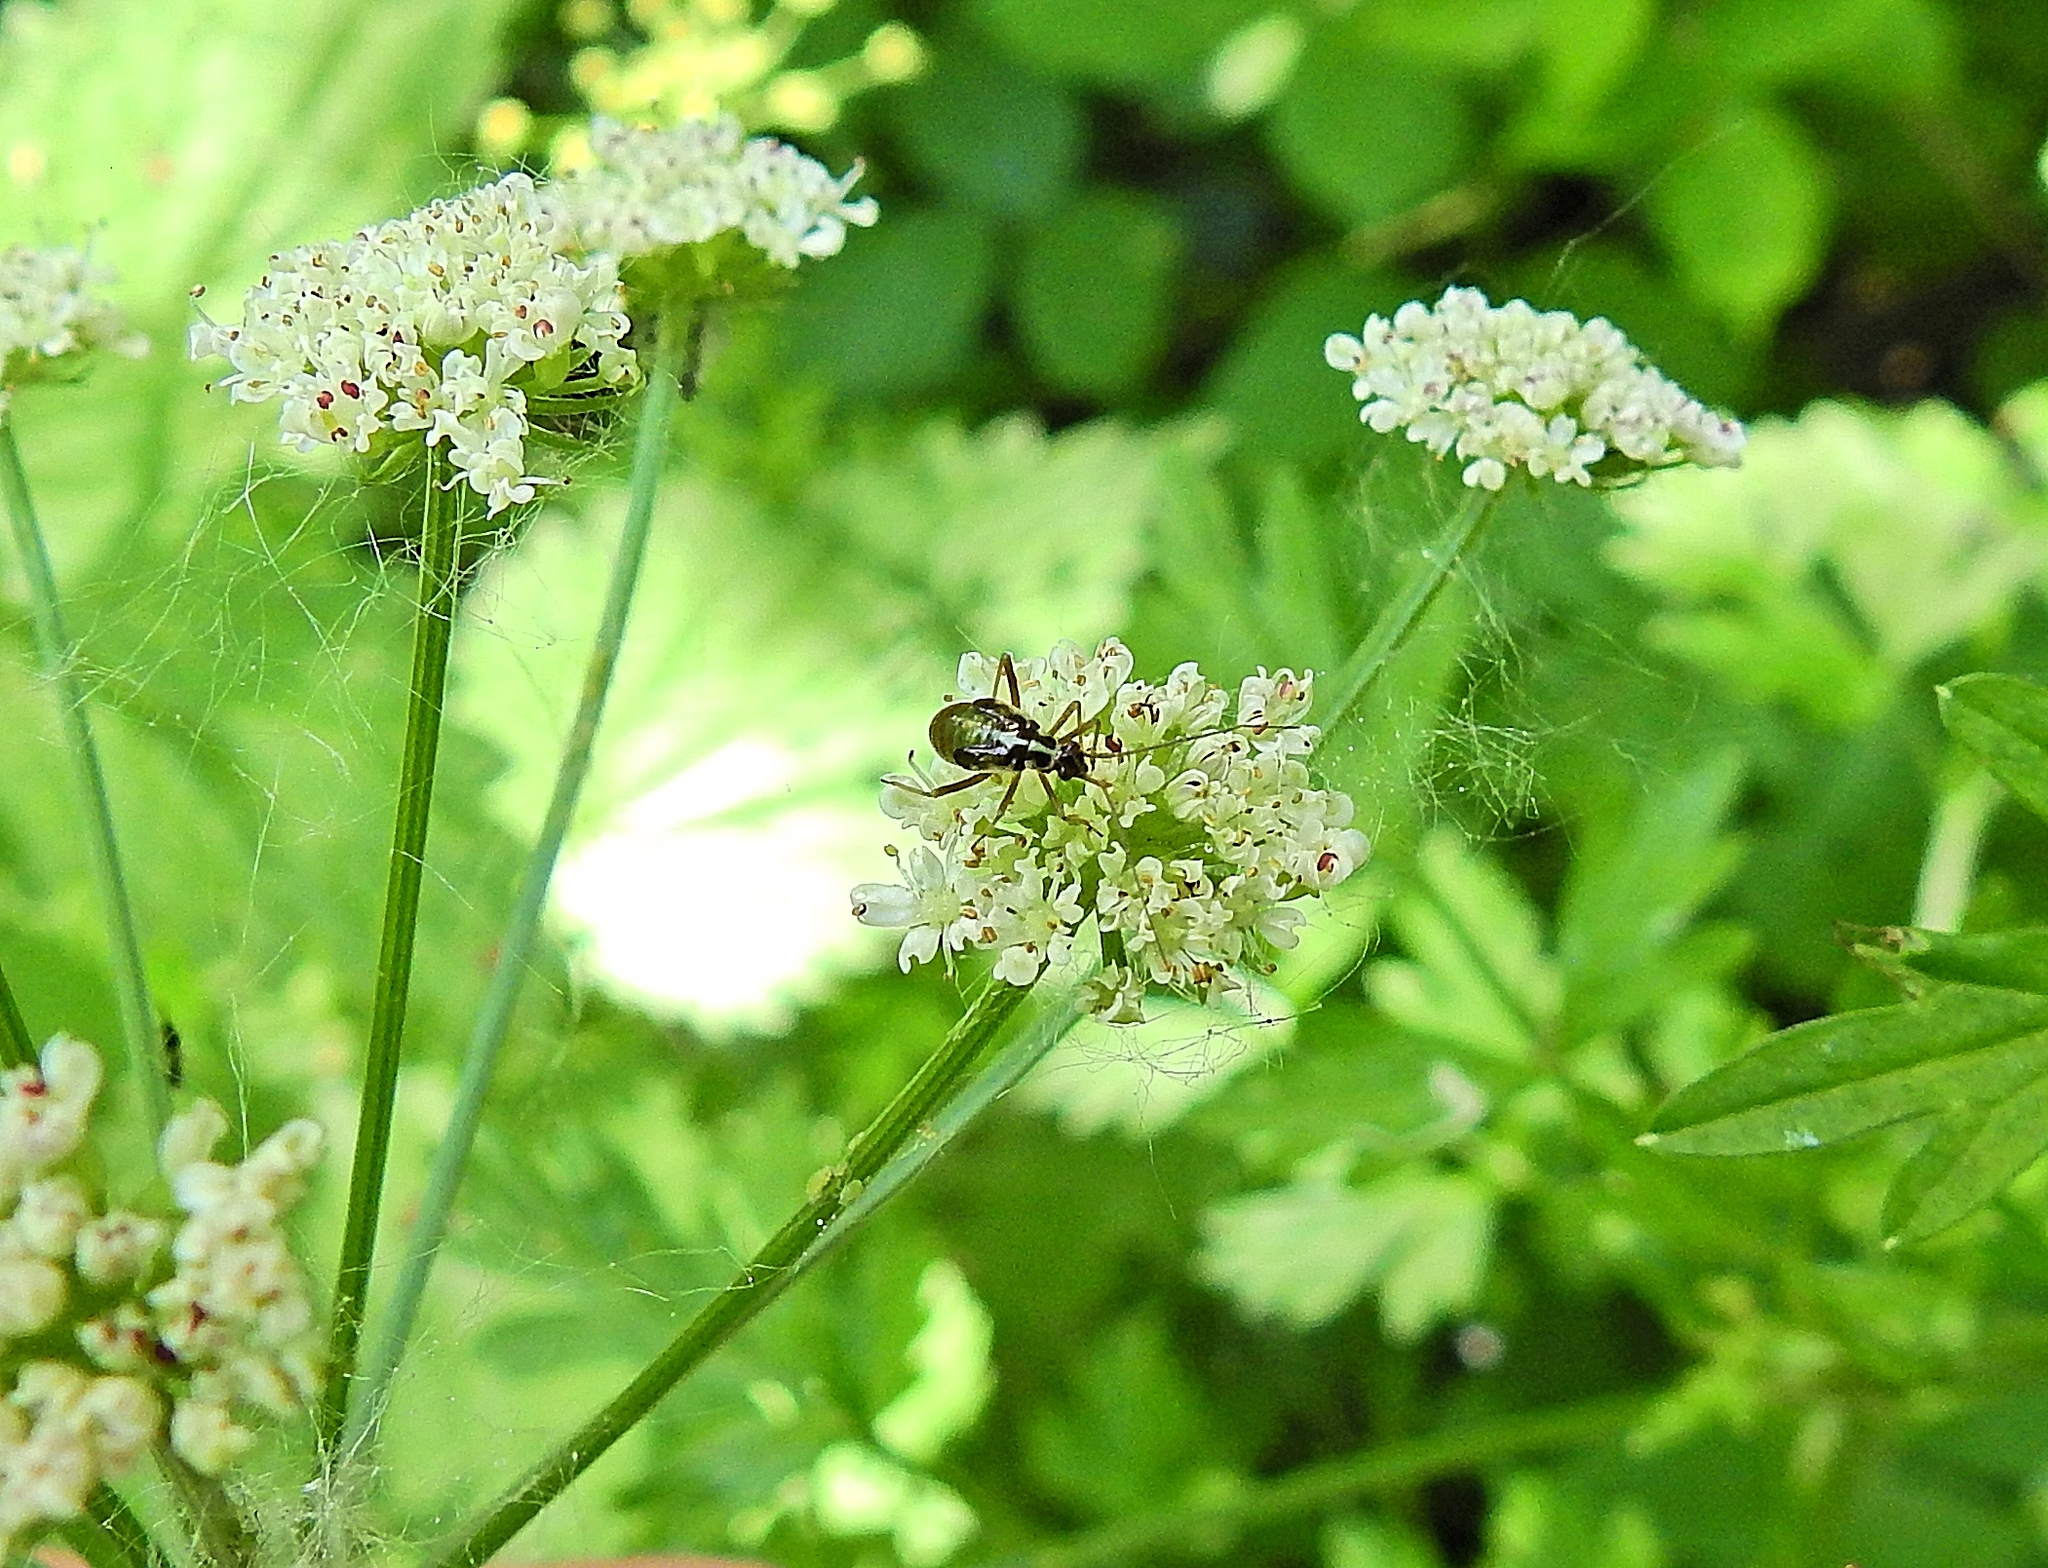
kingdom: Animalia
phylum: Arthropoda
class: Insecta
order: Hemiptera
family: Miridae
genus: Grypocoris
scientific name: Grypocoris stysi
